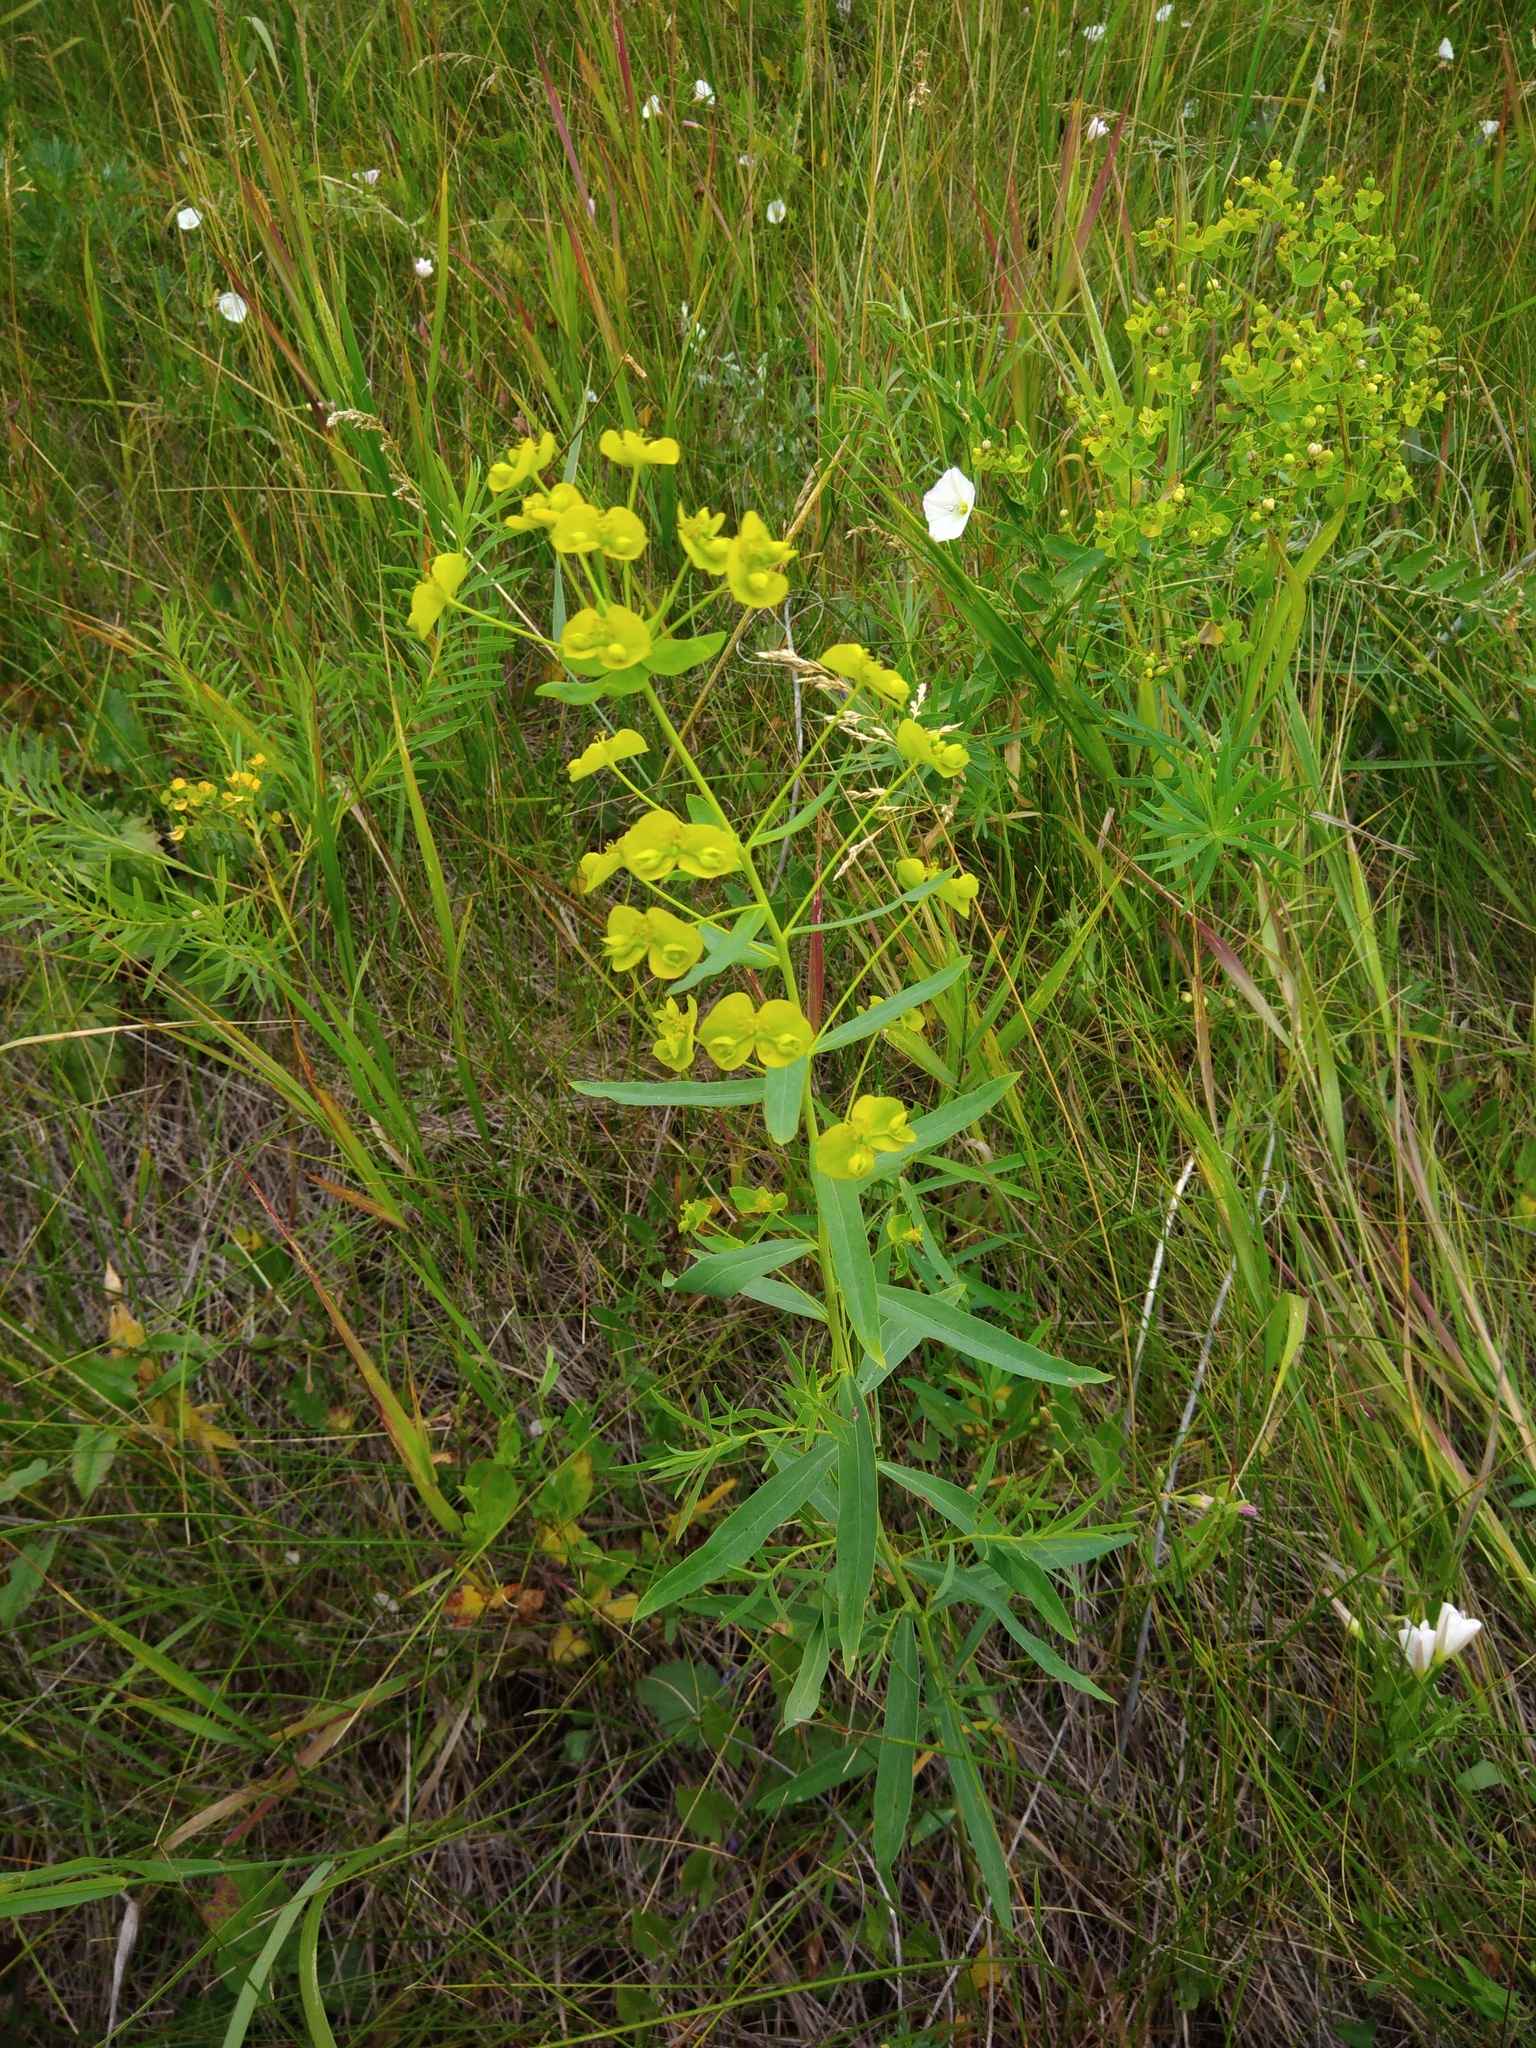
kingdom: Plantae
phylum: Tracheophyta
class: Magnoliopsida
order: Malpighiales
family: Euphorbiaceae
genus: Euphorbia
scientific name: Euphorbia virgata
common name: Leafy spurge
